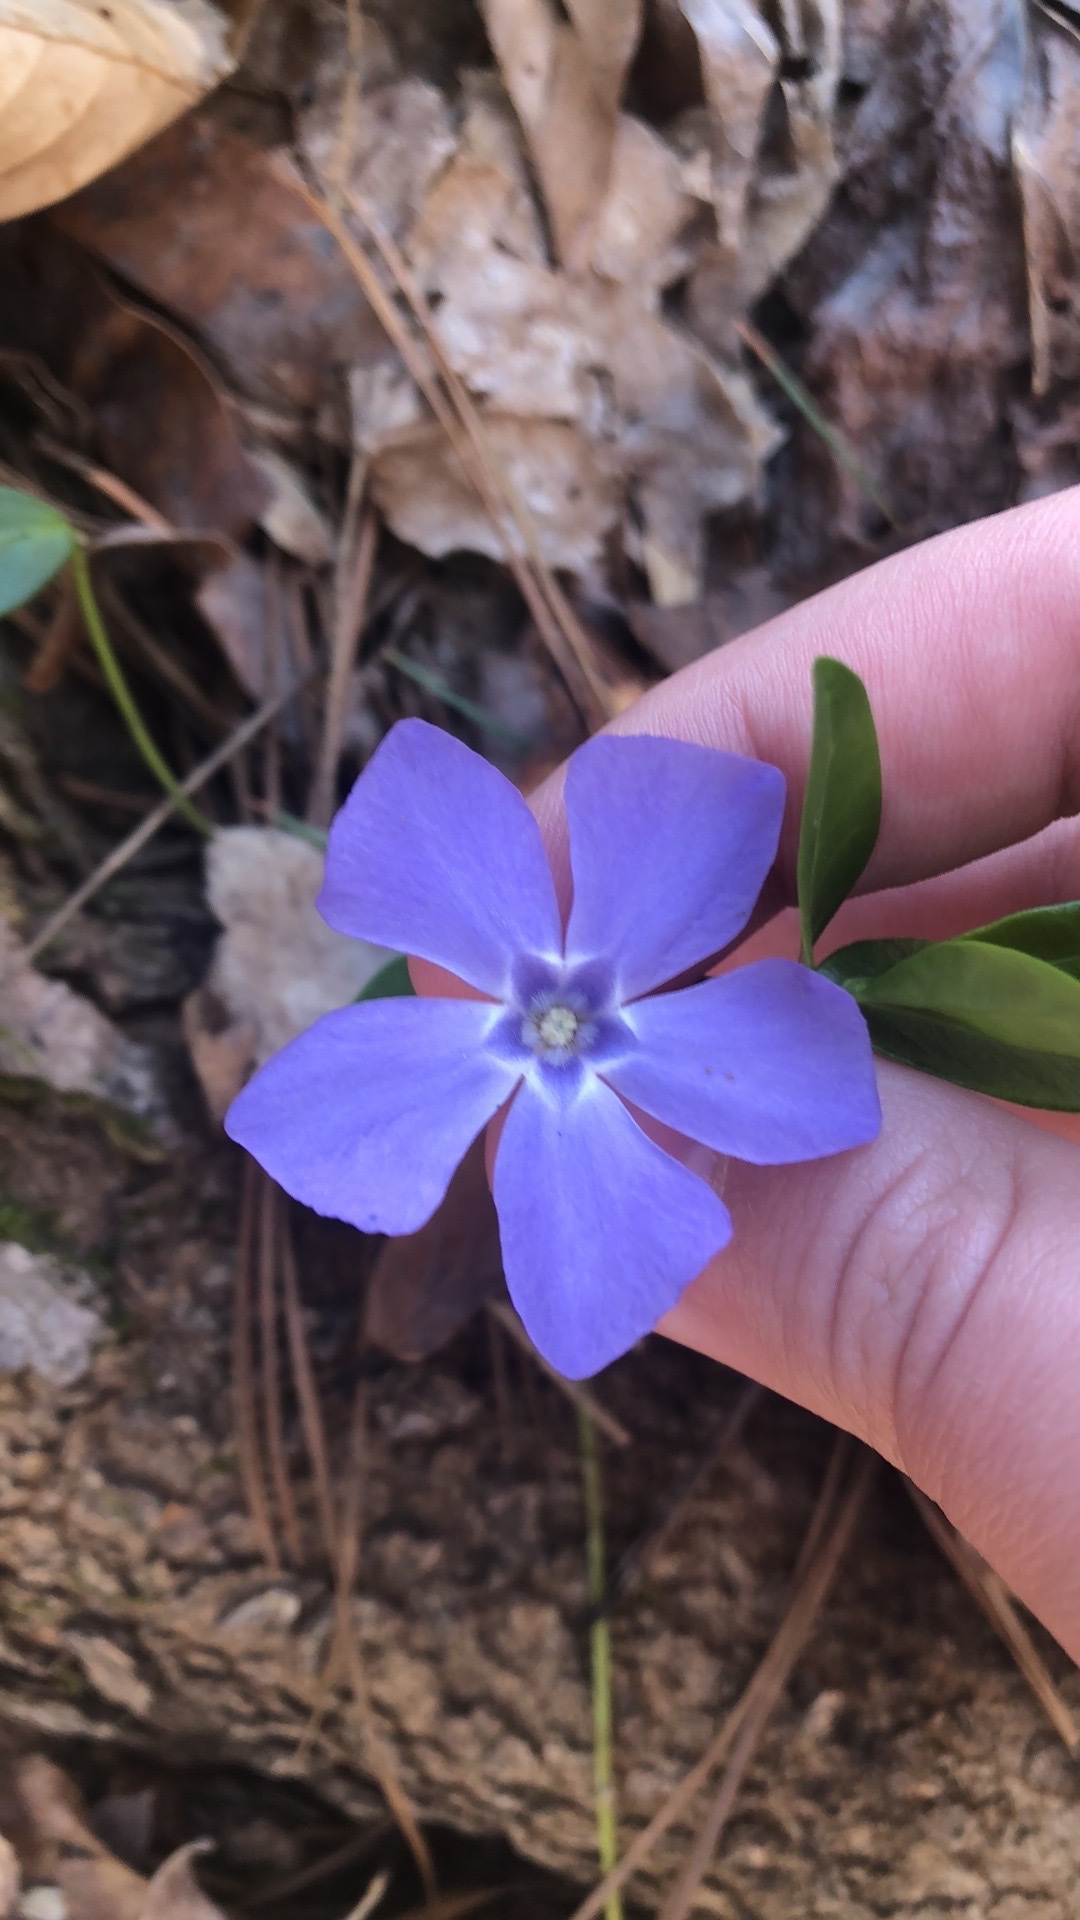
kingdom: Plantae
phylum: Tracheophyta
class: Magnoliopsida
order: Gentianales
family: Apocynaceae
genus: Vinca
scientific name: Vinca minor
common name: Lesser periwinkle
